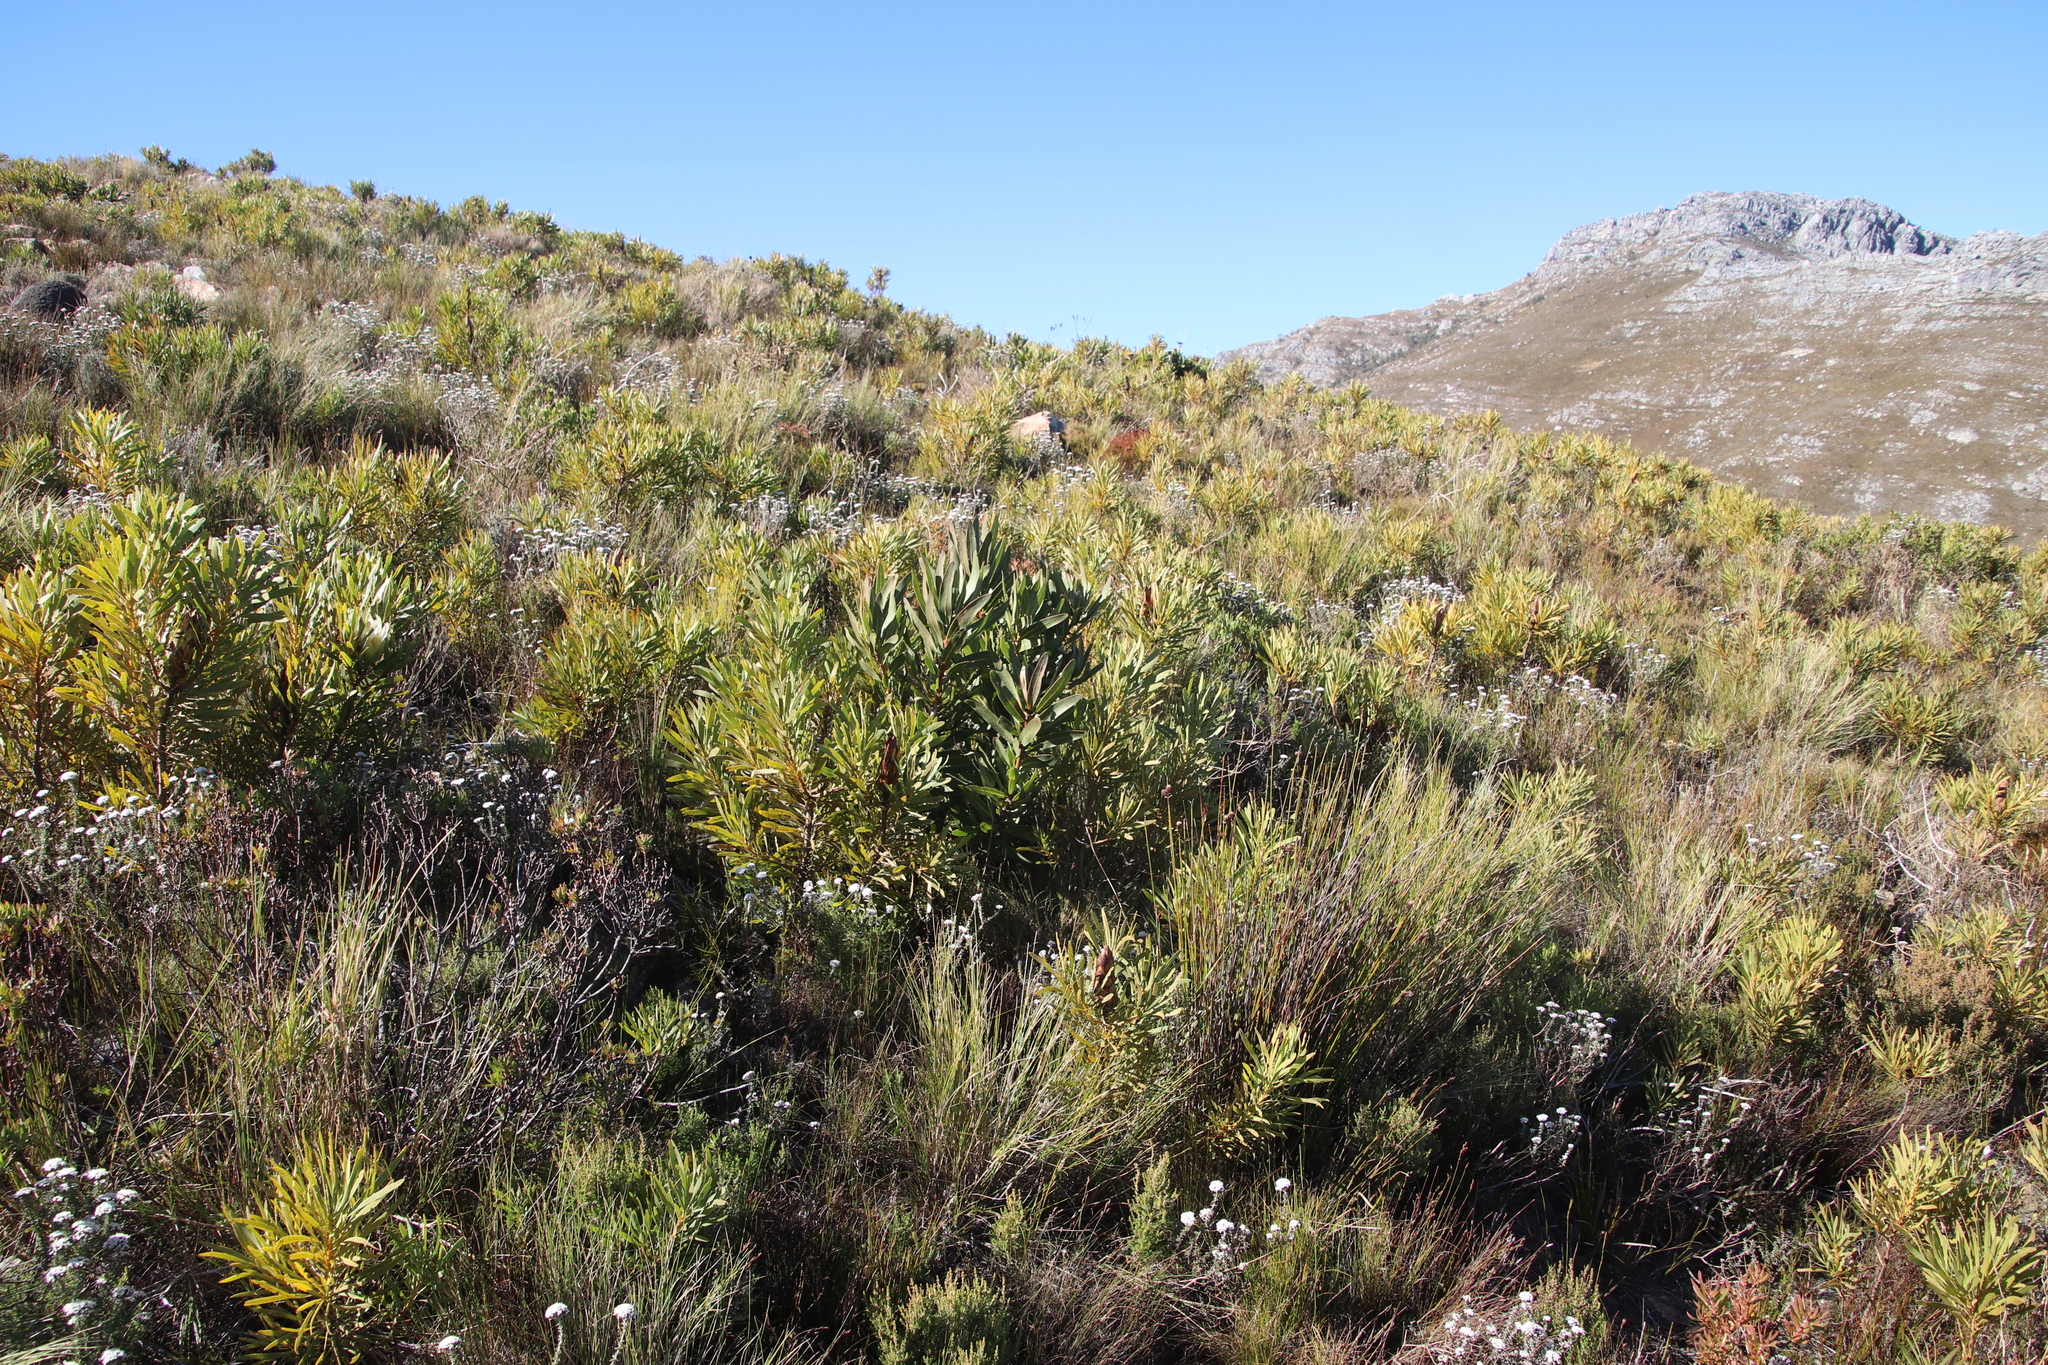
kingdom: Plantae
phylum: Tracheophyta
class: Magnoliopsida
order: Proteales
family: Proteaceae
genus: Protea
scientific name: Protea laurifolia
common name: Grey-leaf sugarbsh
